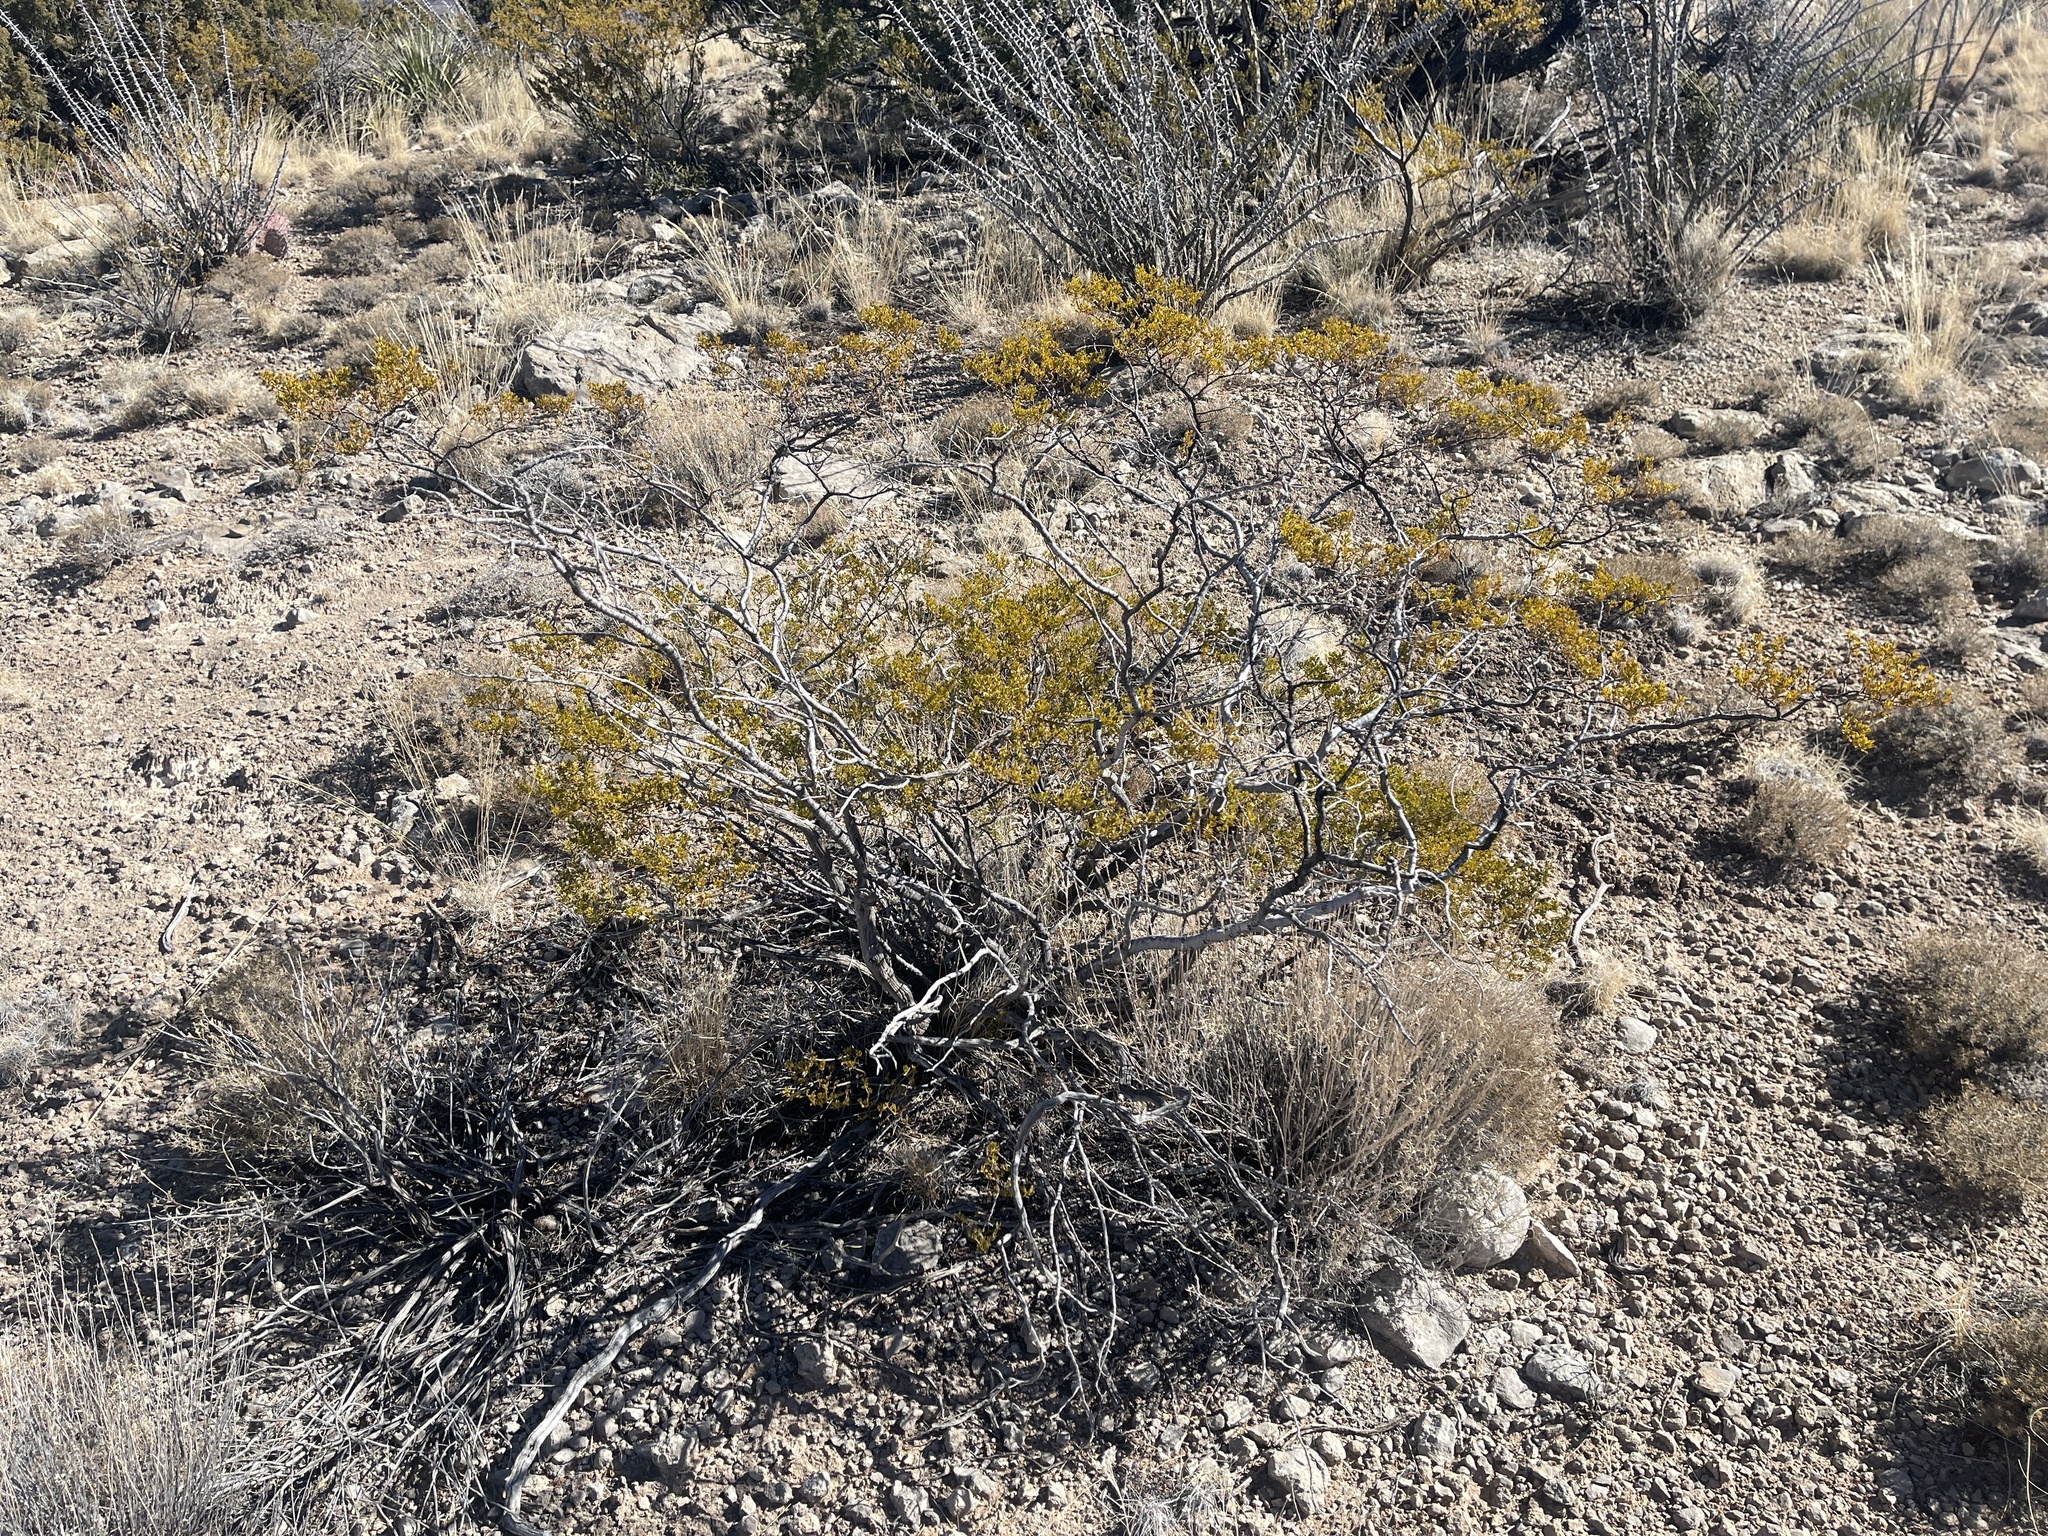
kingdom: Plantae
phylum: Tracheophyta
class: Magnoliopsida
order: Zygophyllales
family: Zygophyllaceae
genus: Larrea
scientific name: Larrea tridentata
